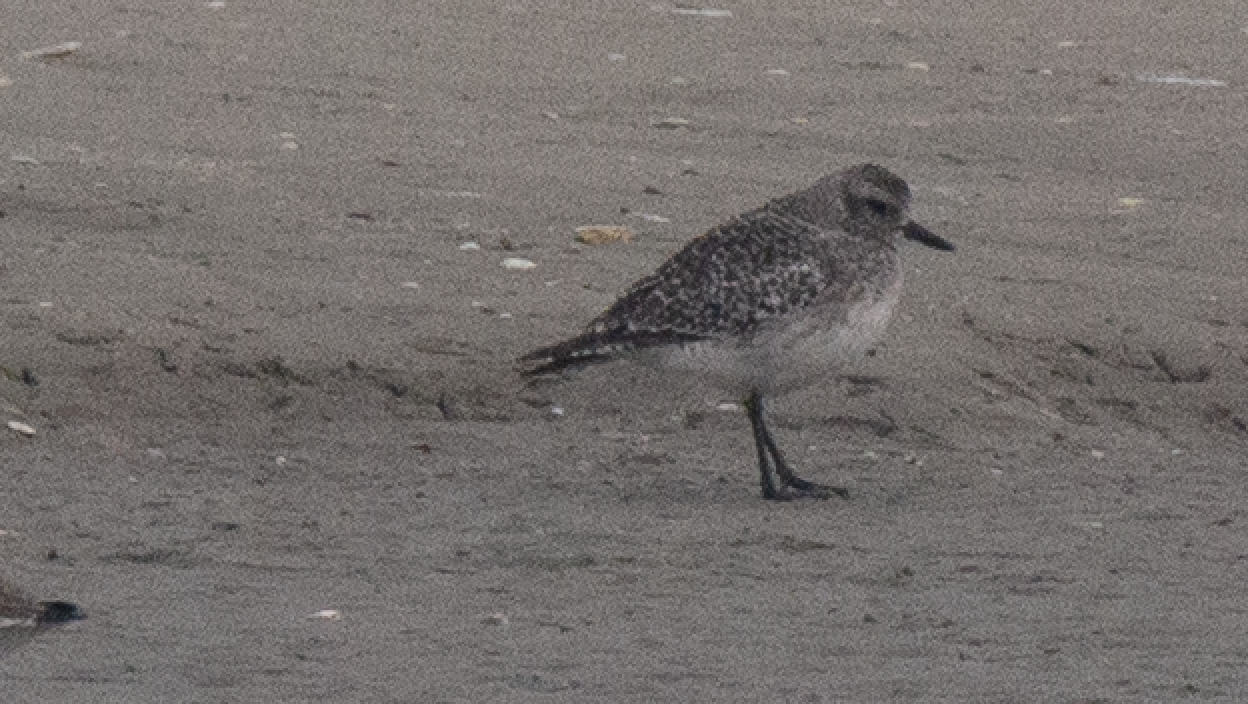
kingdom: Animalia
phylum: Chordata
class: Aves
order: Charadriiformes
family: Charadriidae
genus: Pluvialis
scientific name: Pluvialis squatarola
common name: Grey plover
